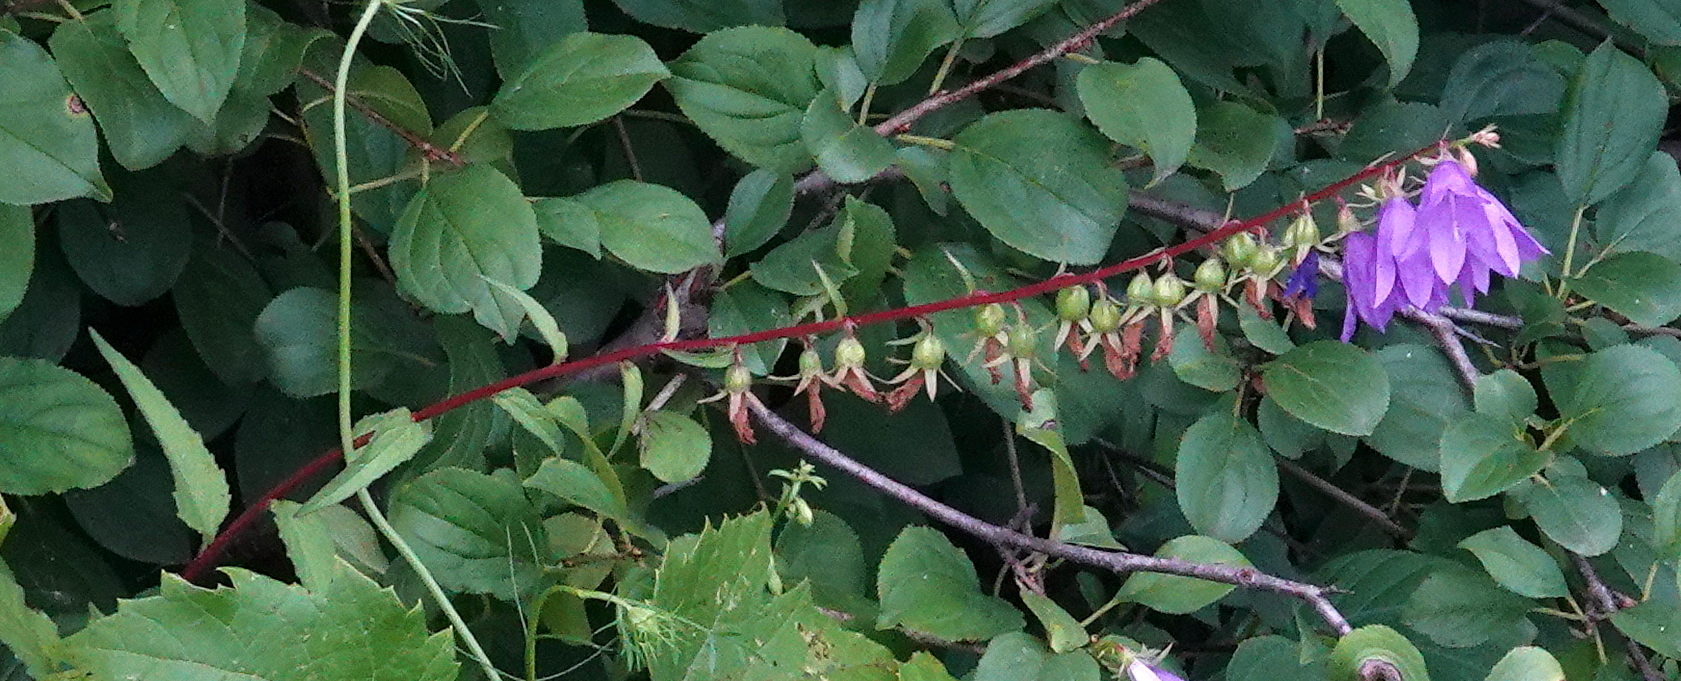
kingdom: Plantae
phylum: Tracheophyta
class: Magnoliopsida
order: Asterales
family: Campanulaceae
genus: Campanula
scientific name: Campanula rapunculoides
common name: Creeping bellflower
